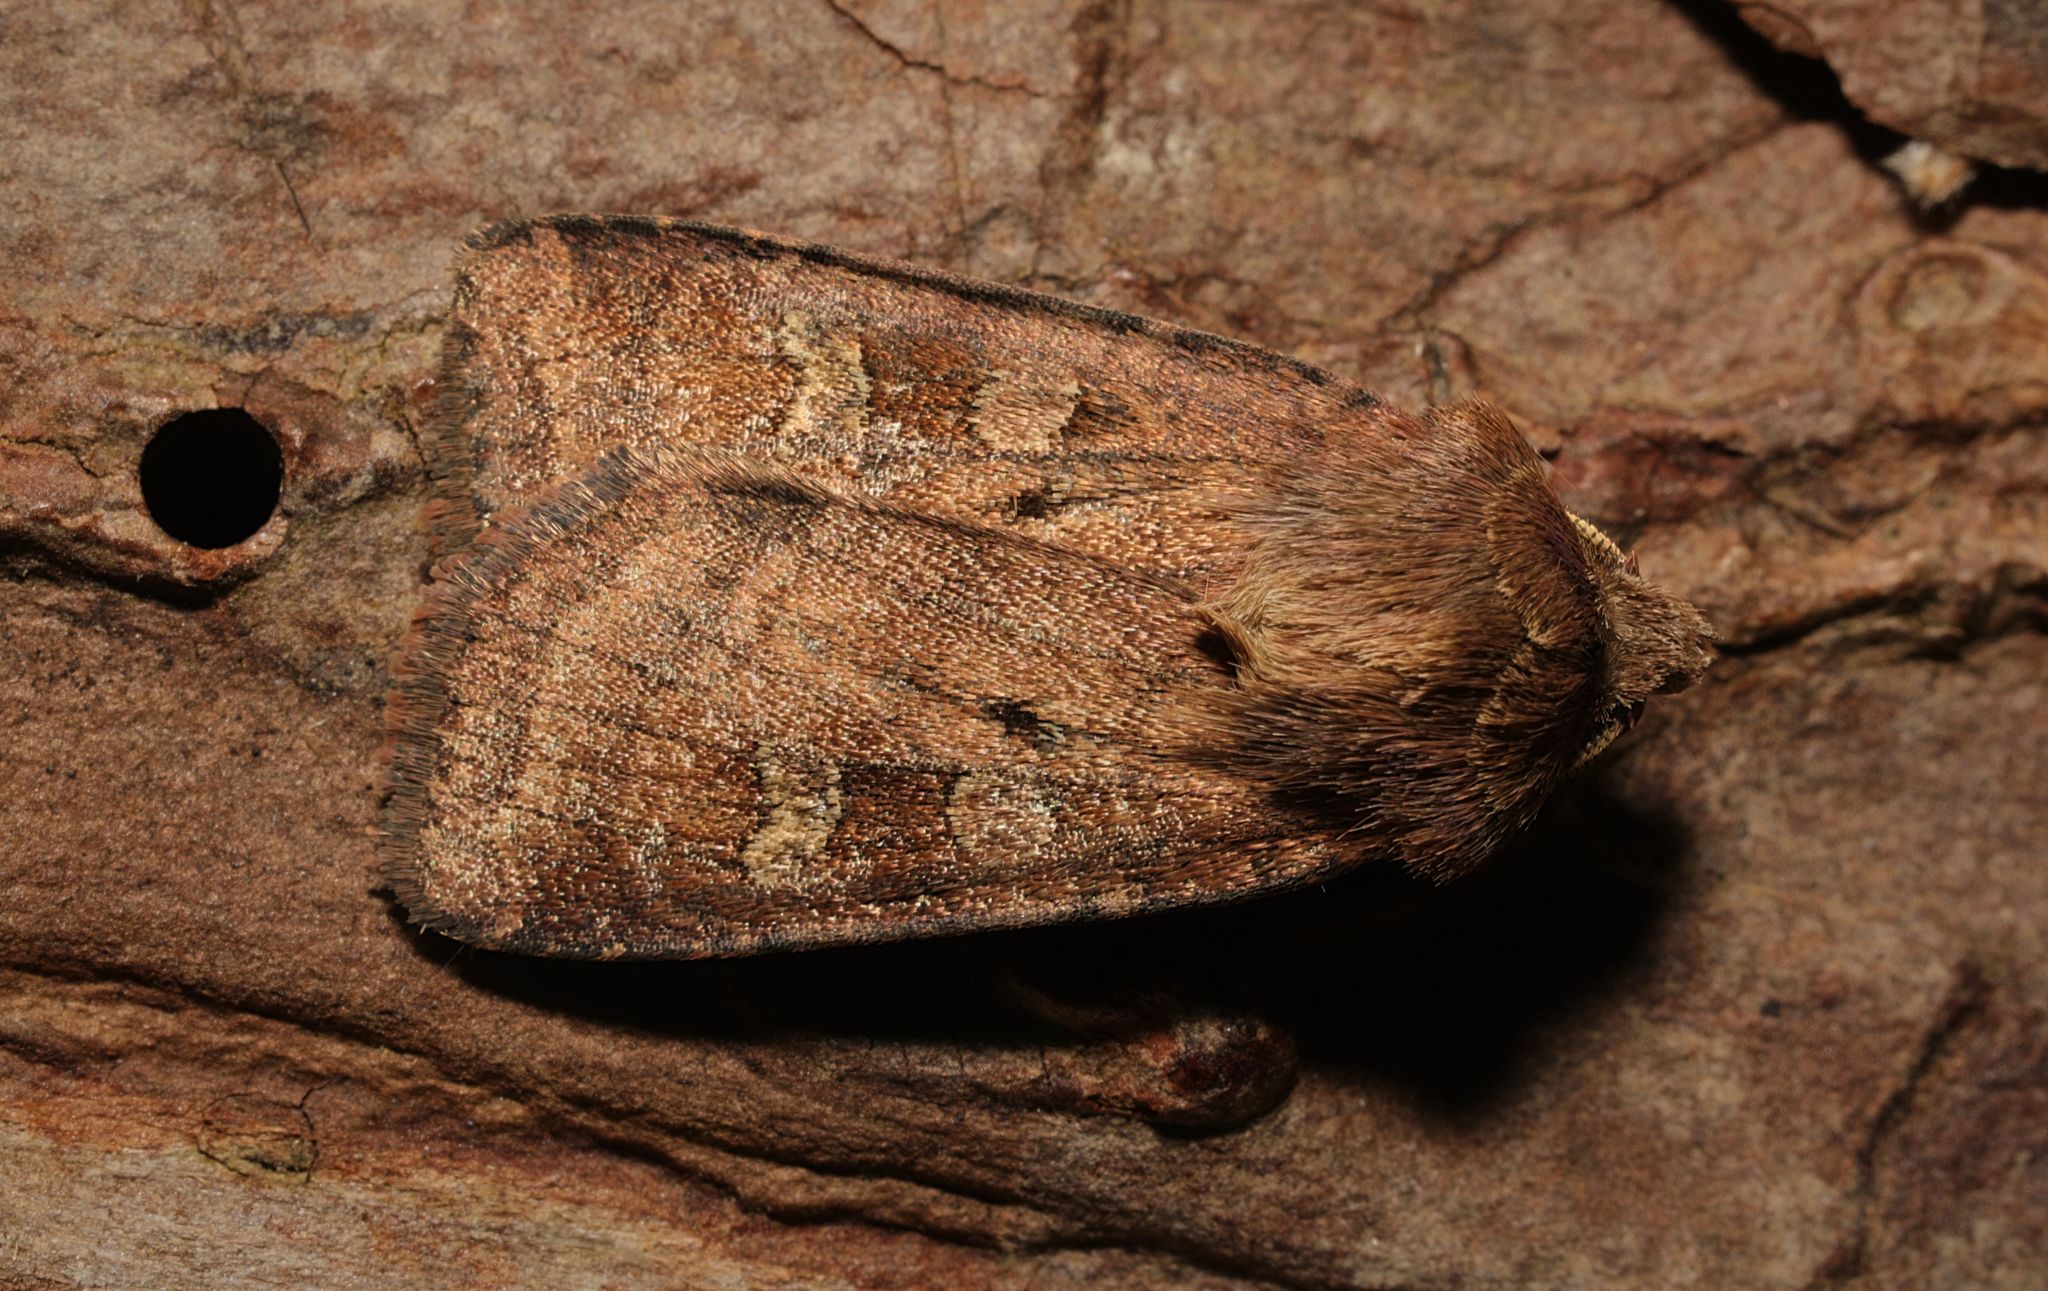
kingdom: Animalia
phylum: Arthropoda
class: Insecta
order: Lepidoptera
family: Noctuidae
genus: Diarsia
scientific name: Diarsia rubi
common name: Small square-spot
